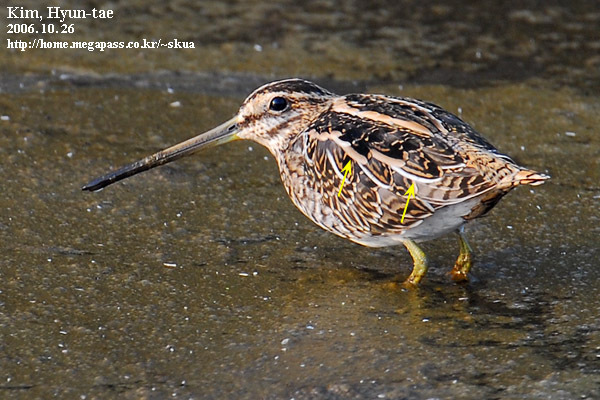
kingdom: Animalia
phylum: Chordata
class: Aves
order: Charadriiformes
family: Scolopacidae
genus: Gallinago
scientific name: Gallinago gallinago
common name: Common snipe
